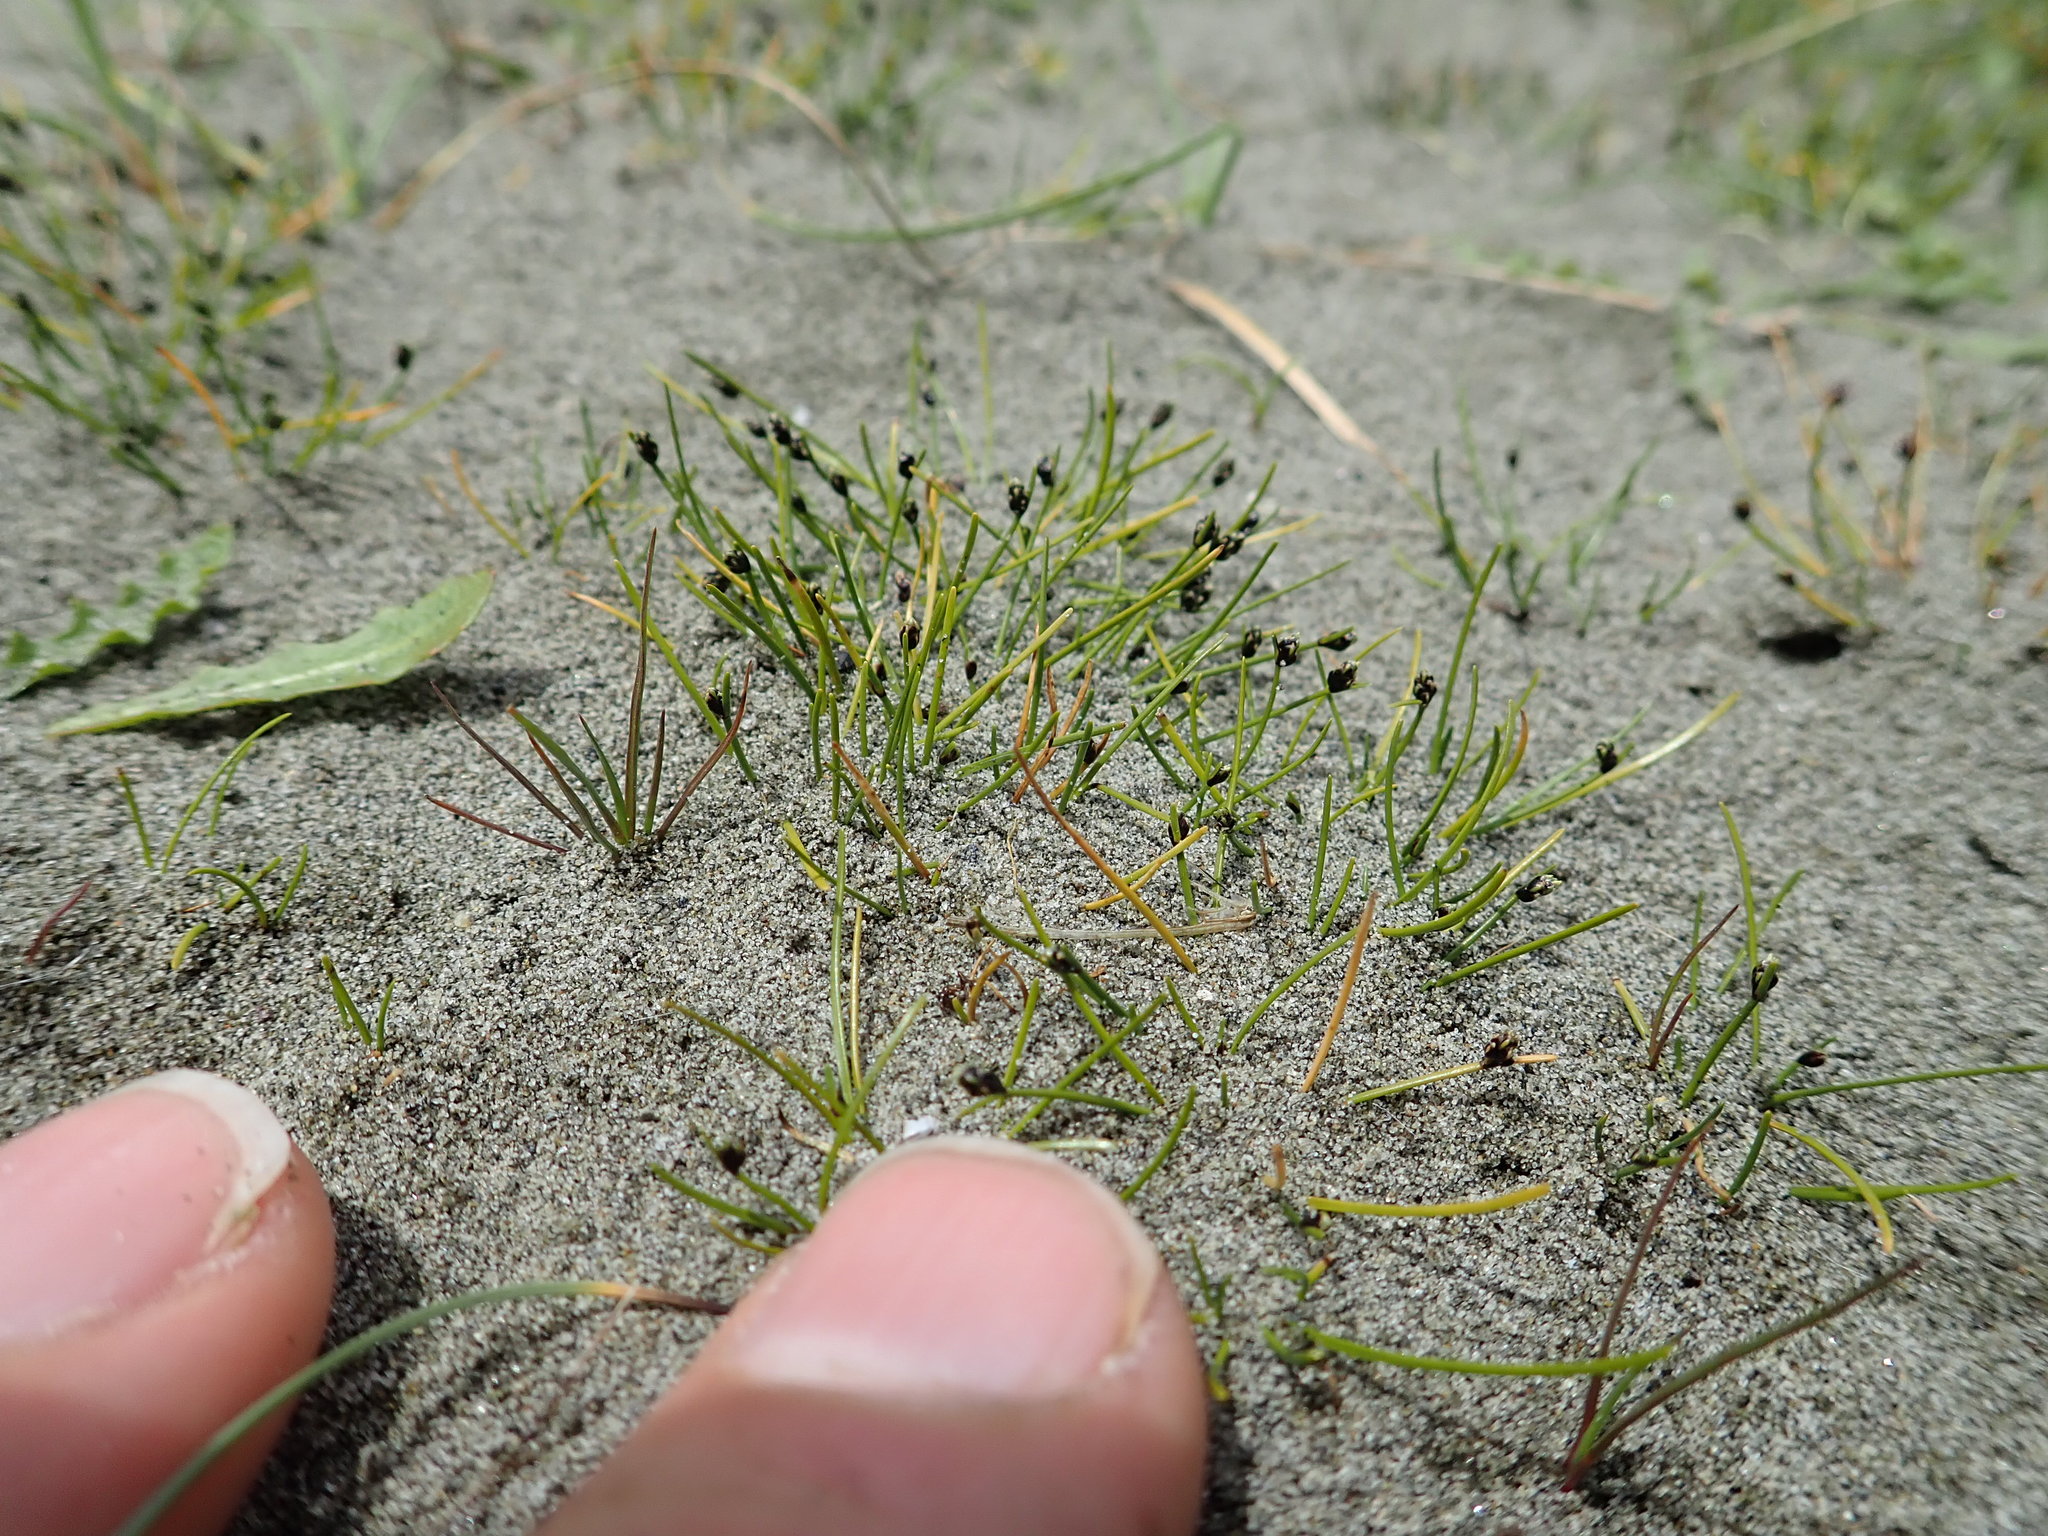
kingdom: Plantae
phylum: Tracheophyta
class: Liliopsida
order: Poales
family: Cyperaceae
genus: Isolepis
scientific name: Isolepis cernua
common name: Slender club-rush
